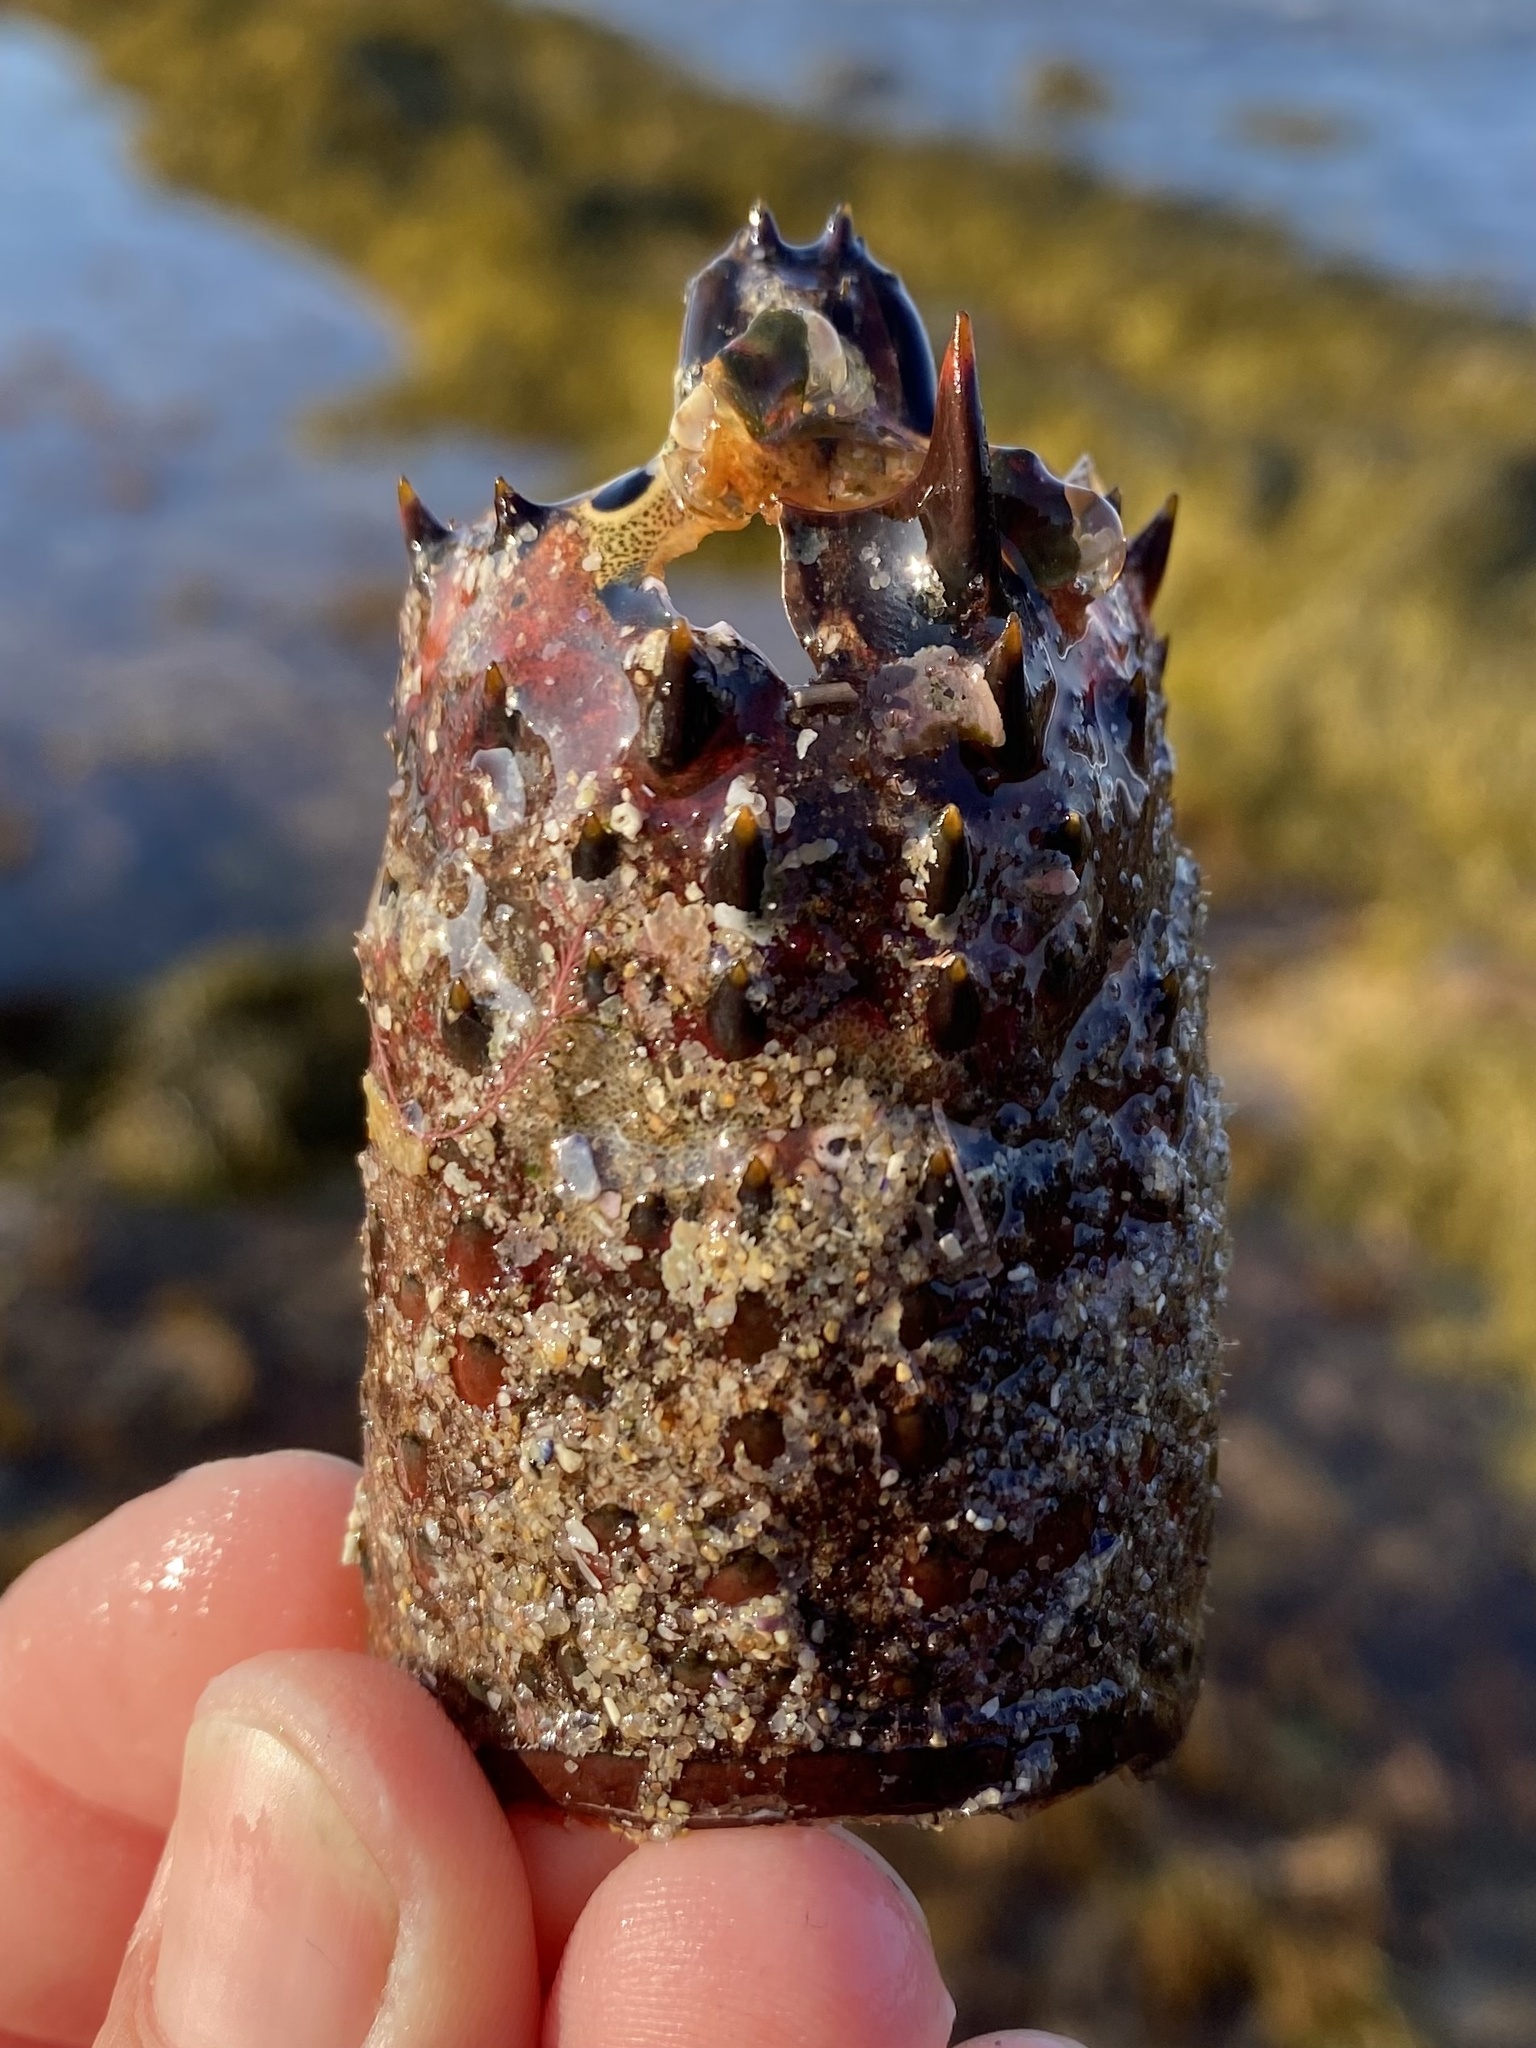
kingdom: Animalia
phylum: Arthropoda
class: Malacostraca
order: Decapoda
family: Palinuridae
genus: Panulirus
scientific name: Panulirus interruptus
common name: California spiny lobster
